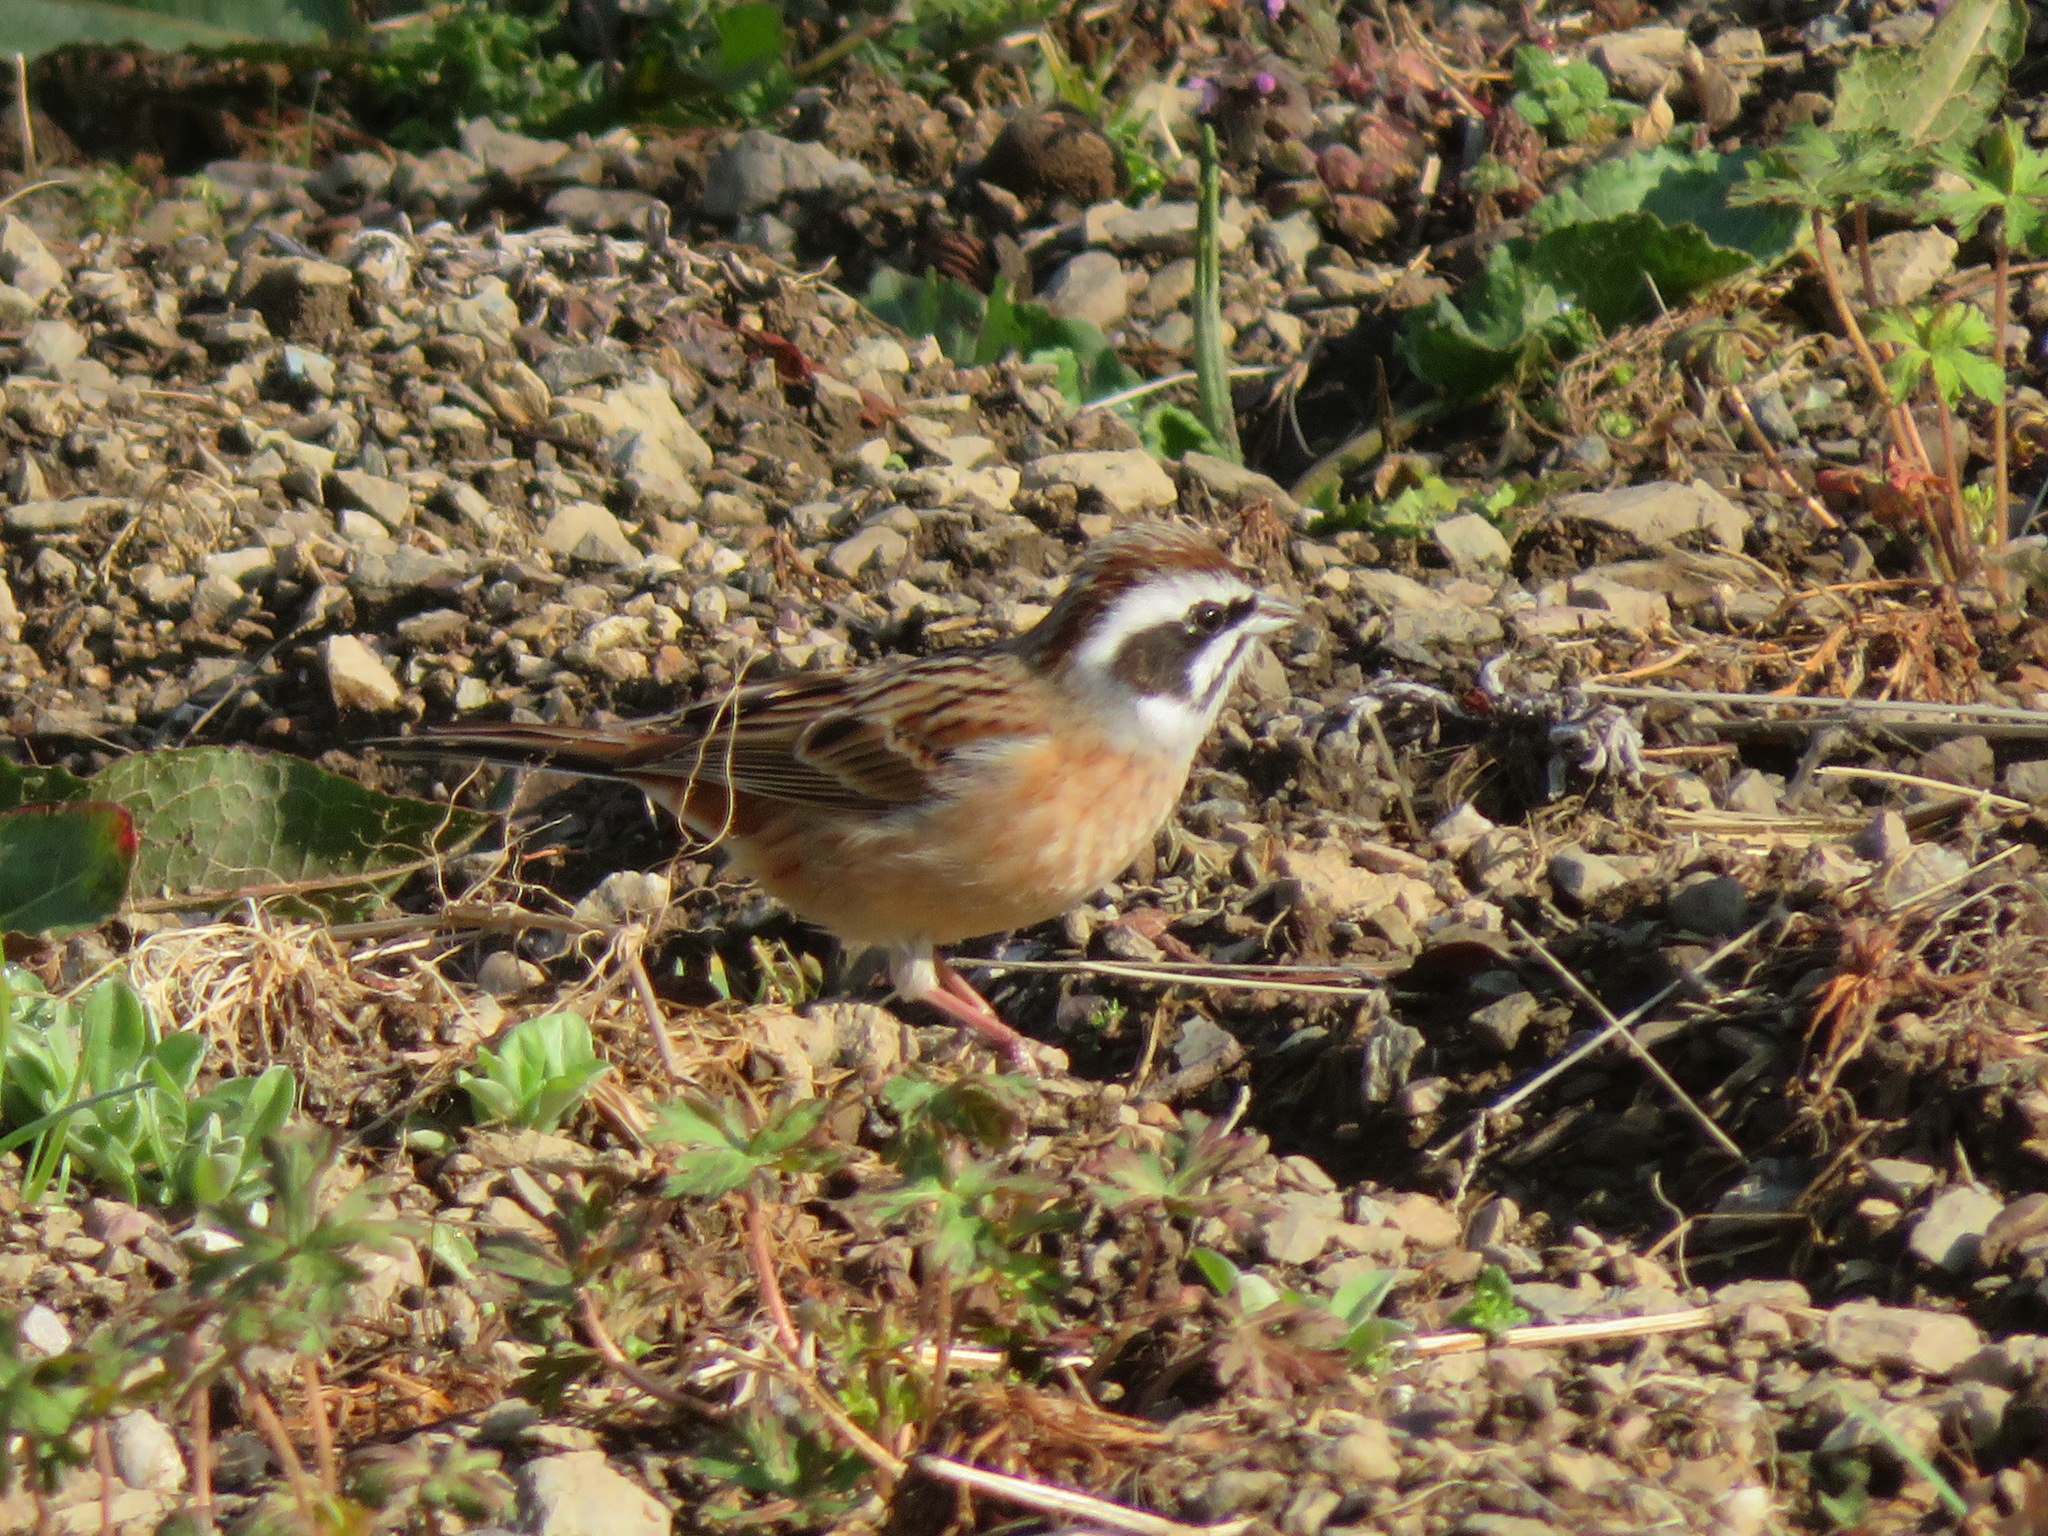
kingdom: Animalia
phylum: Chordata
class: Aves
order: Passeriformes
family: Emberizidae
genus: Emberiza
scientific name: Emberiza cioides
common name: Meadow bunting
